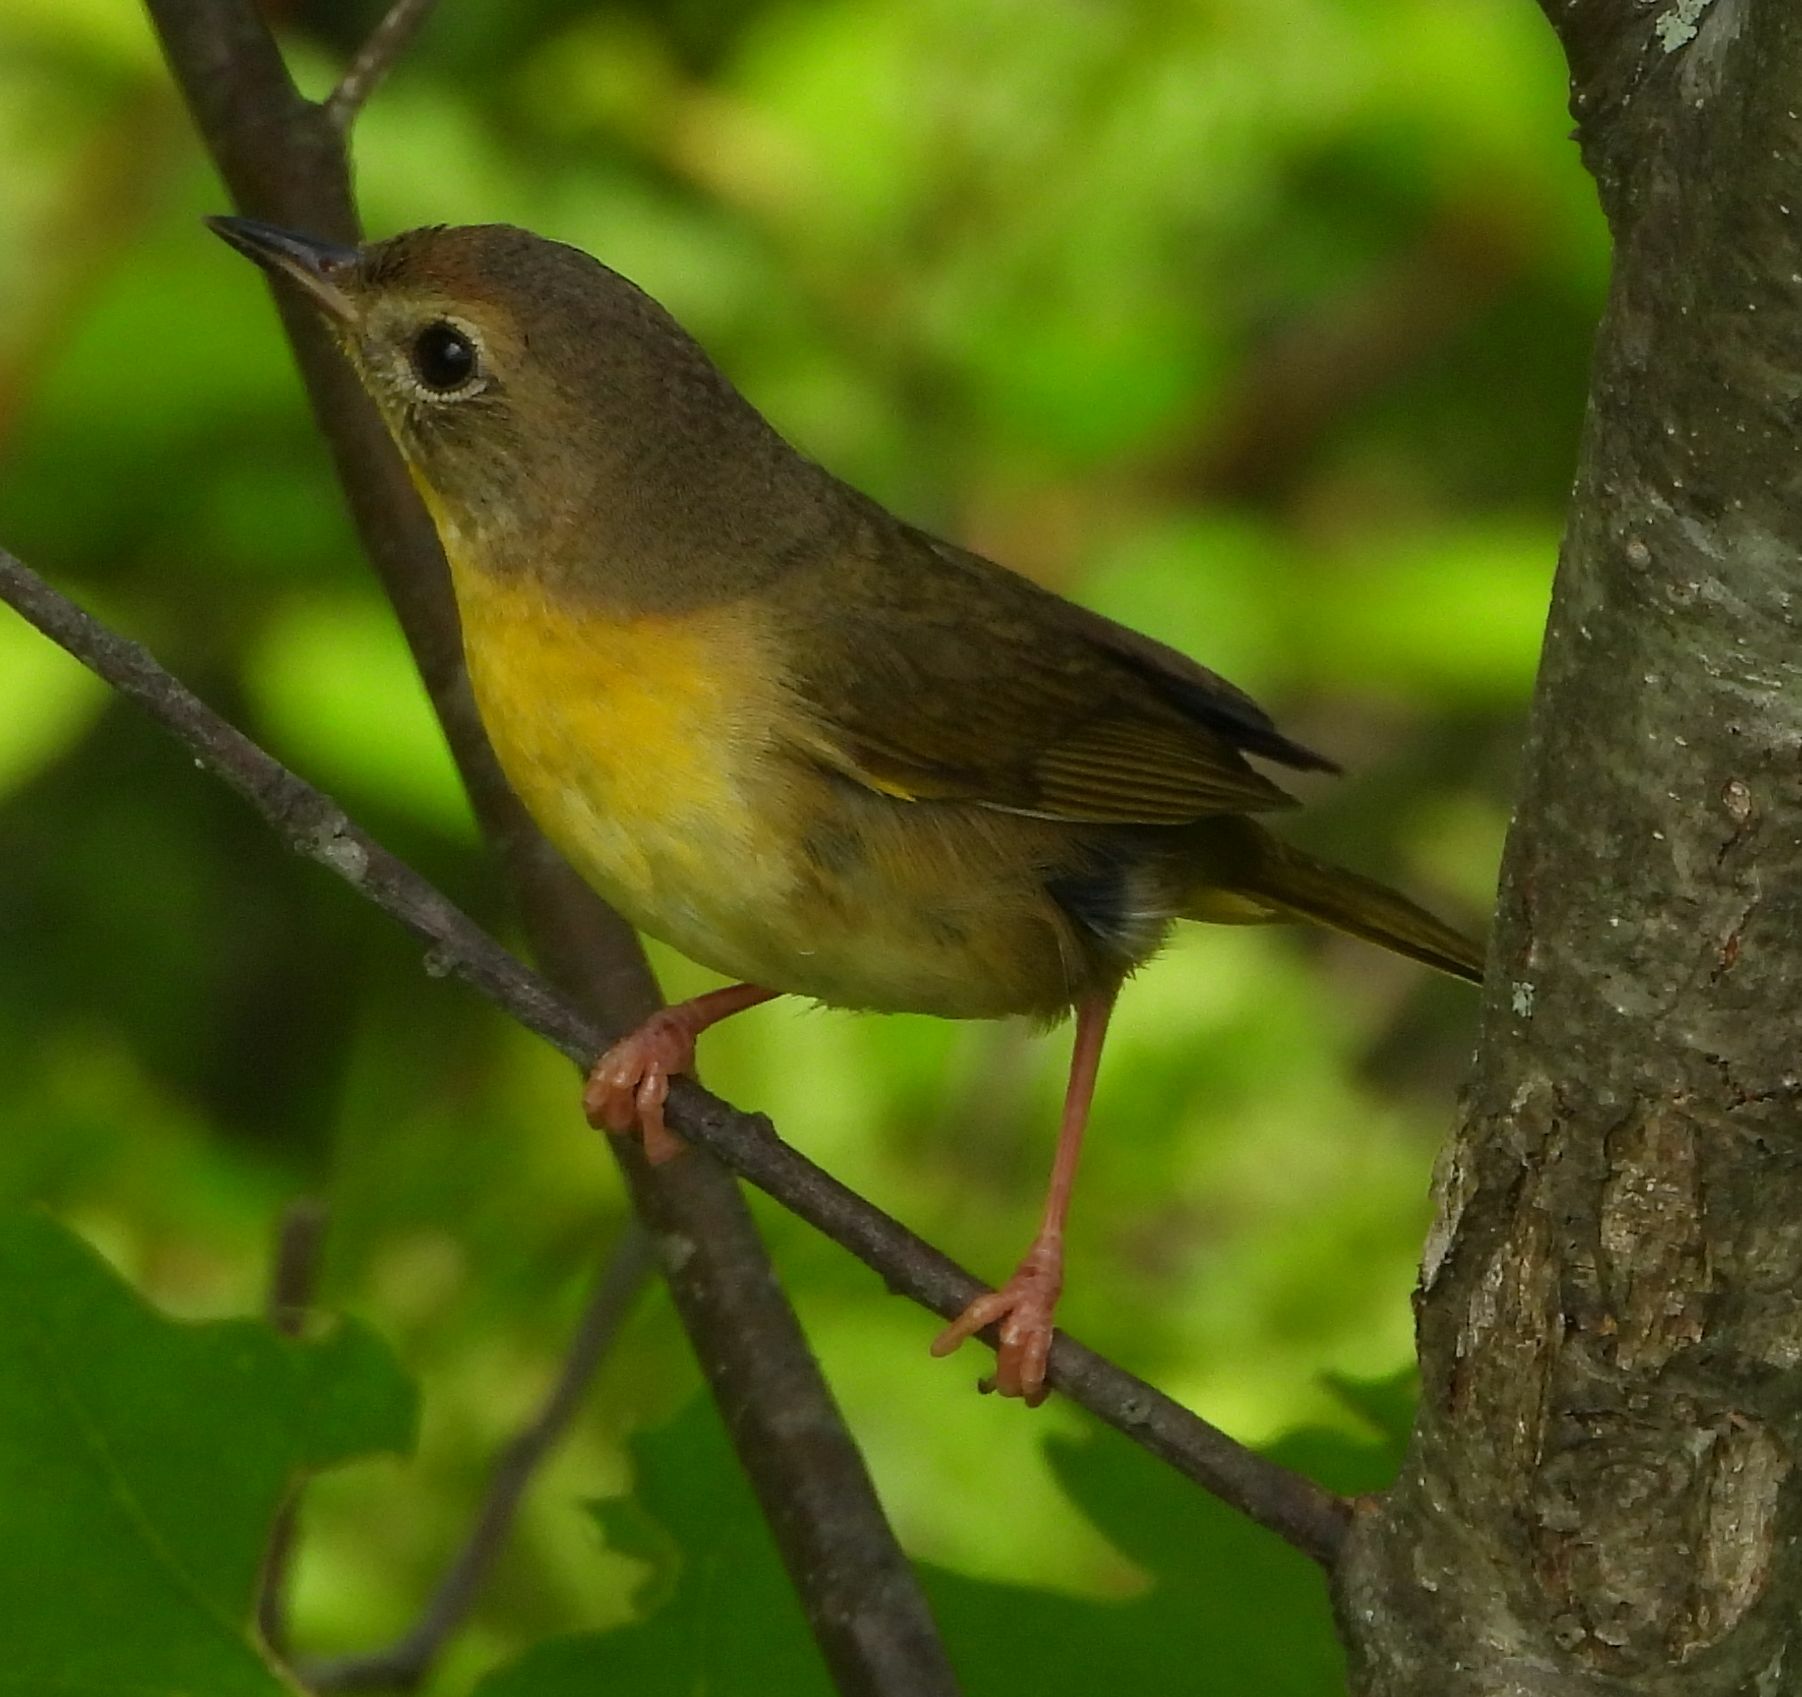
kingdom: Animalia
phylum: Chordata
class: Aves
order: Passeriformes
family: Parulidae
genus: Geothlypis
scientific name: Geothlypis trichas
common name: Common yellowthroat
